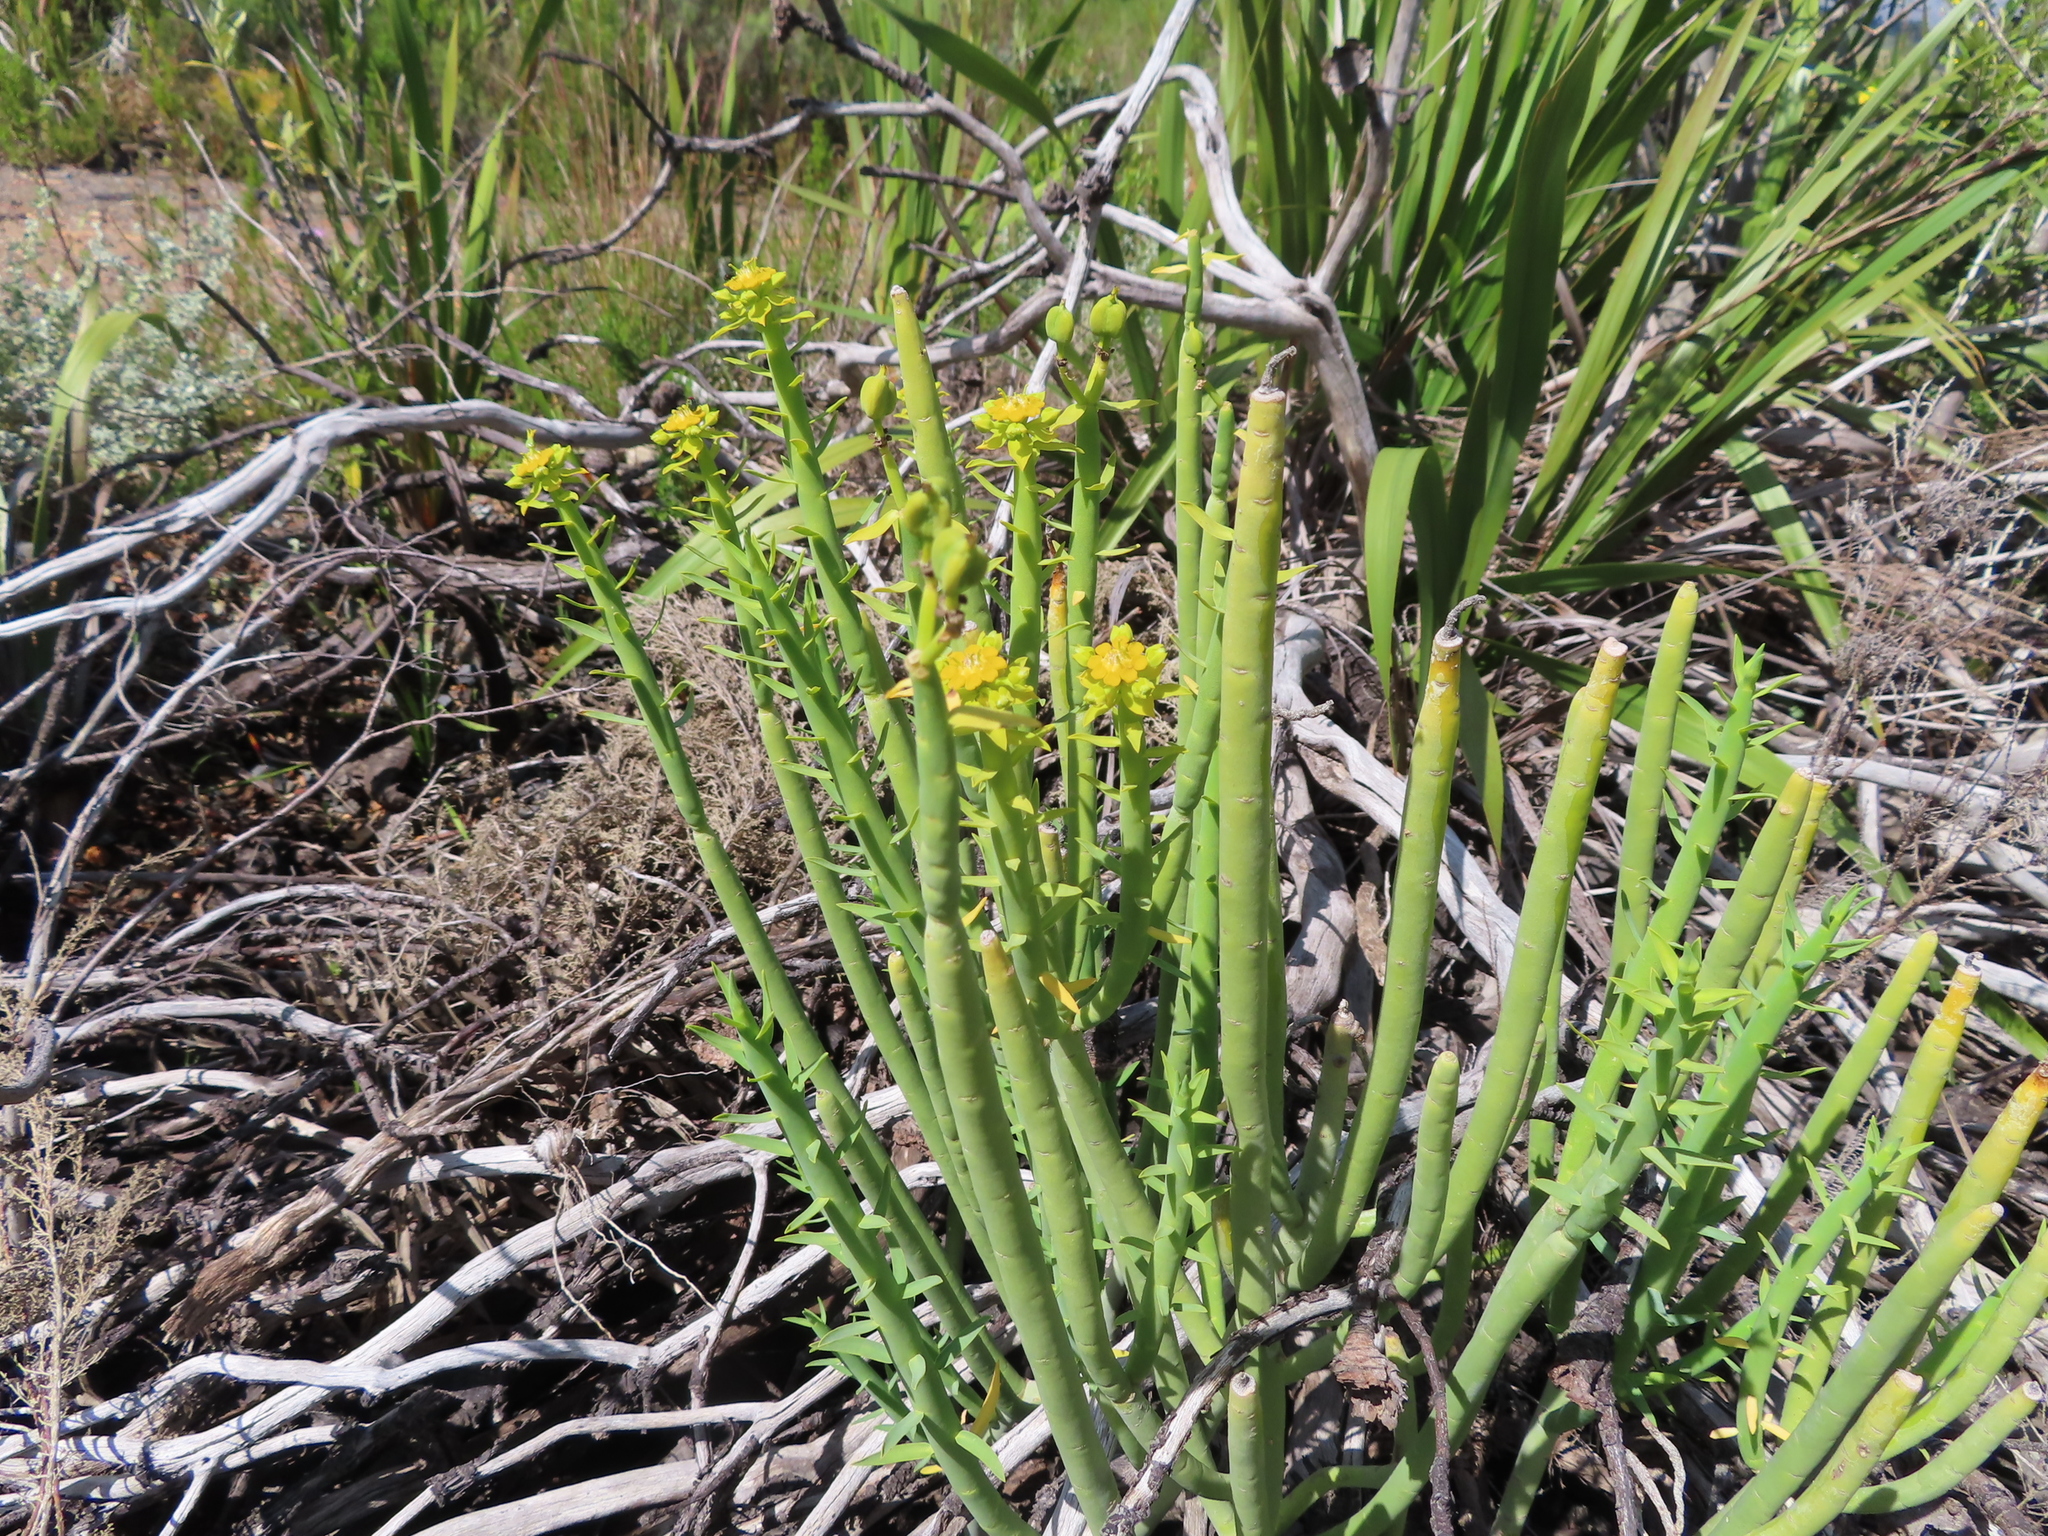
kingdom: Plantae
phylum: Tracheophyta
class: Magnoliopsida
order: Malpighiales
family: Euphorbiaceae
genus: Euphorbia
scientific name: Euphorbia mauritanica
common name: Jackal's-food
